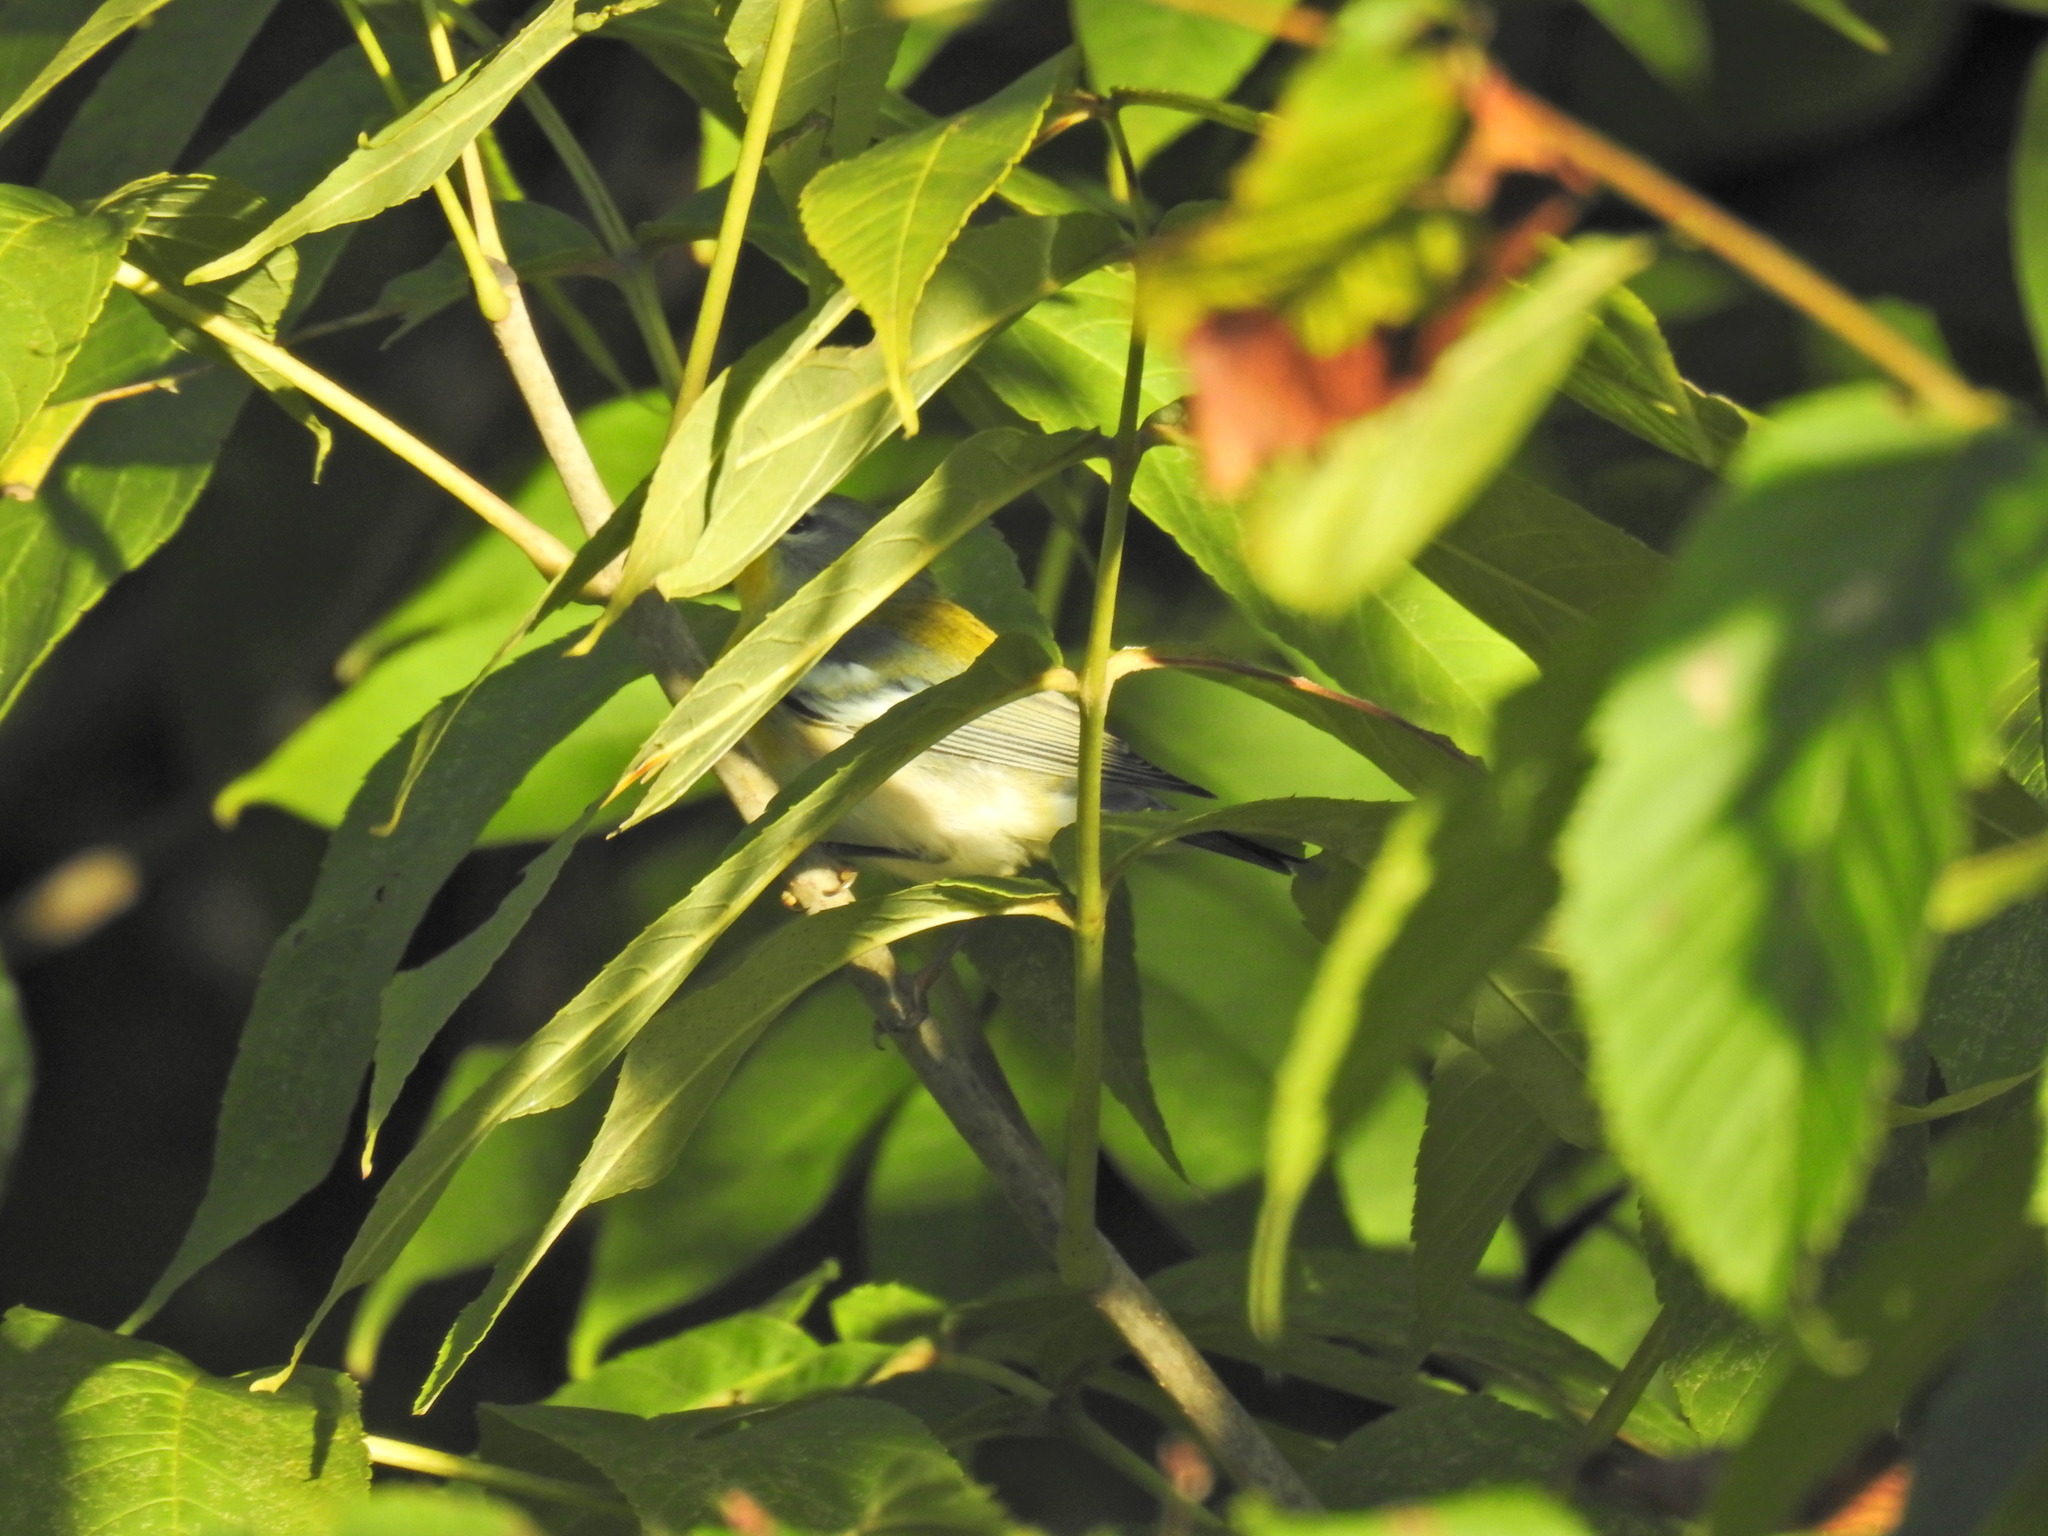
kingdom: Animalia
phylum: Chordata
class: Aves
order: Passeriformes
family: Parulidae
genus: Setophaga
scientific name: Setophaga americana
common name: Northern parula
